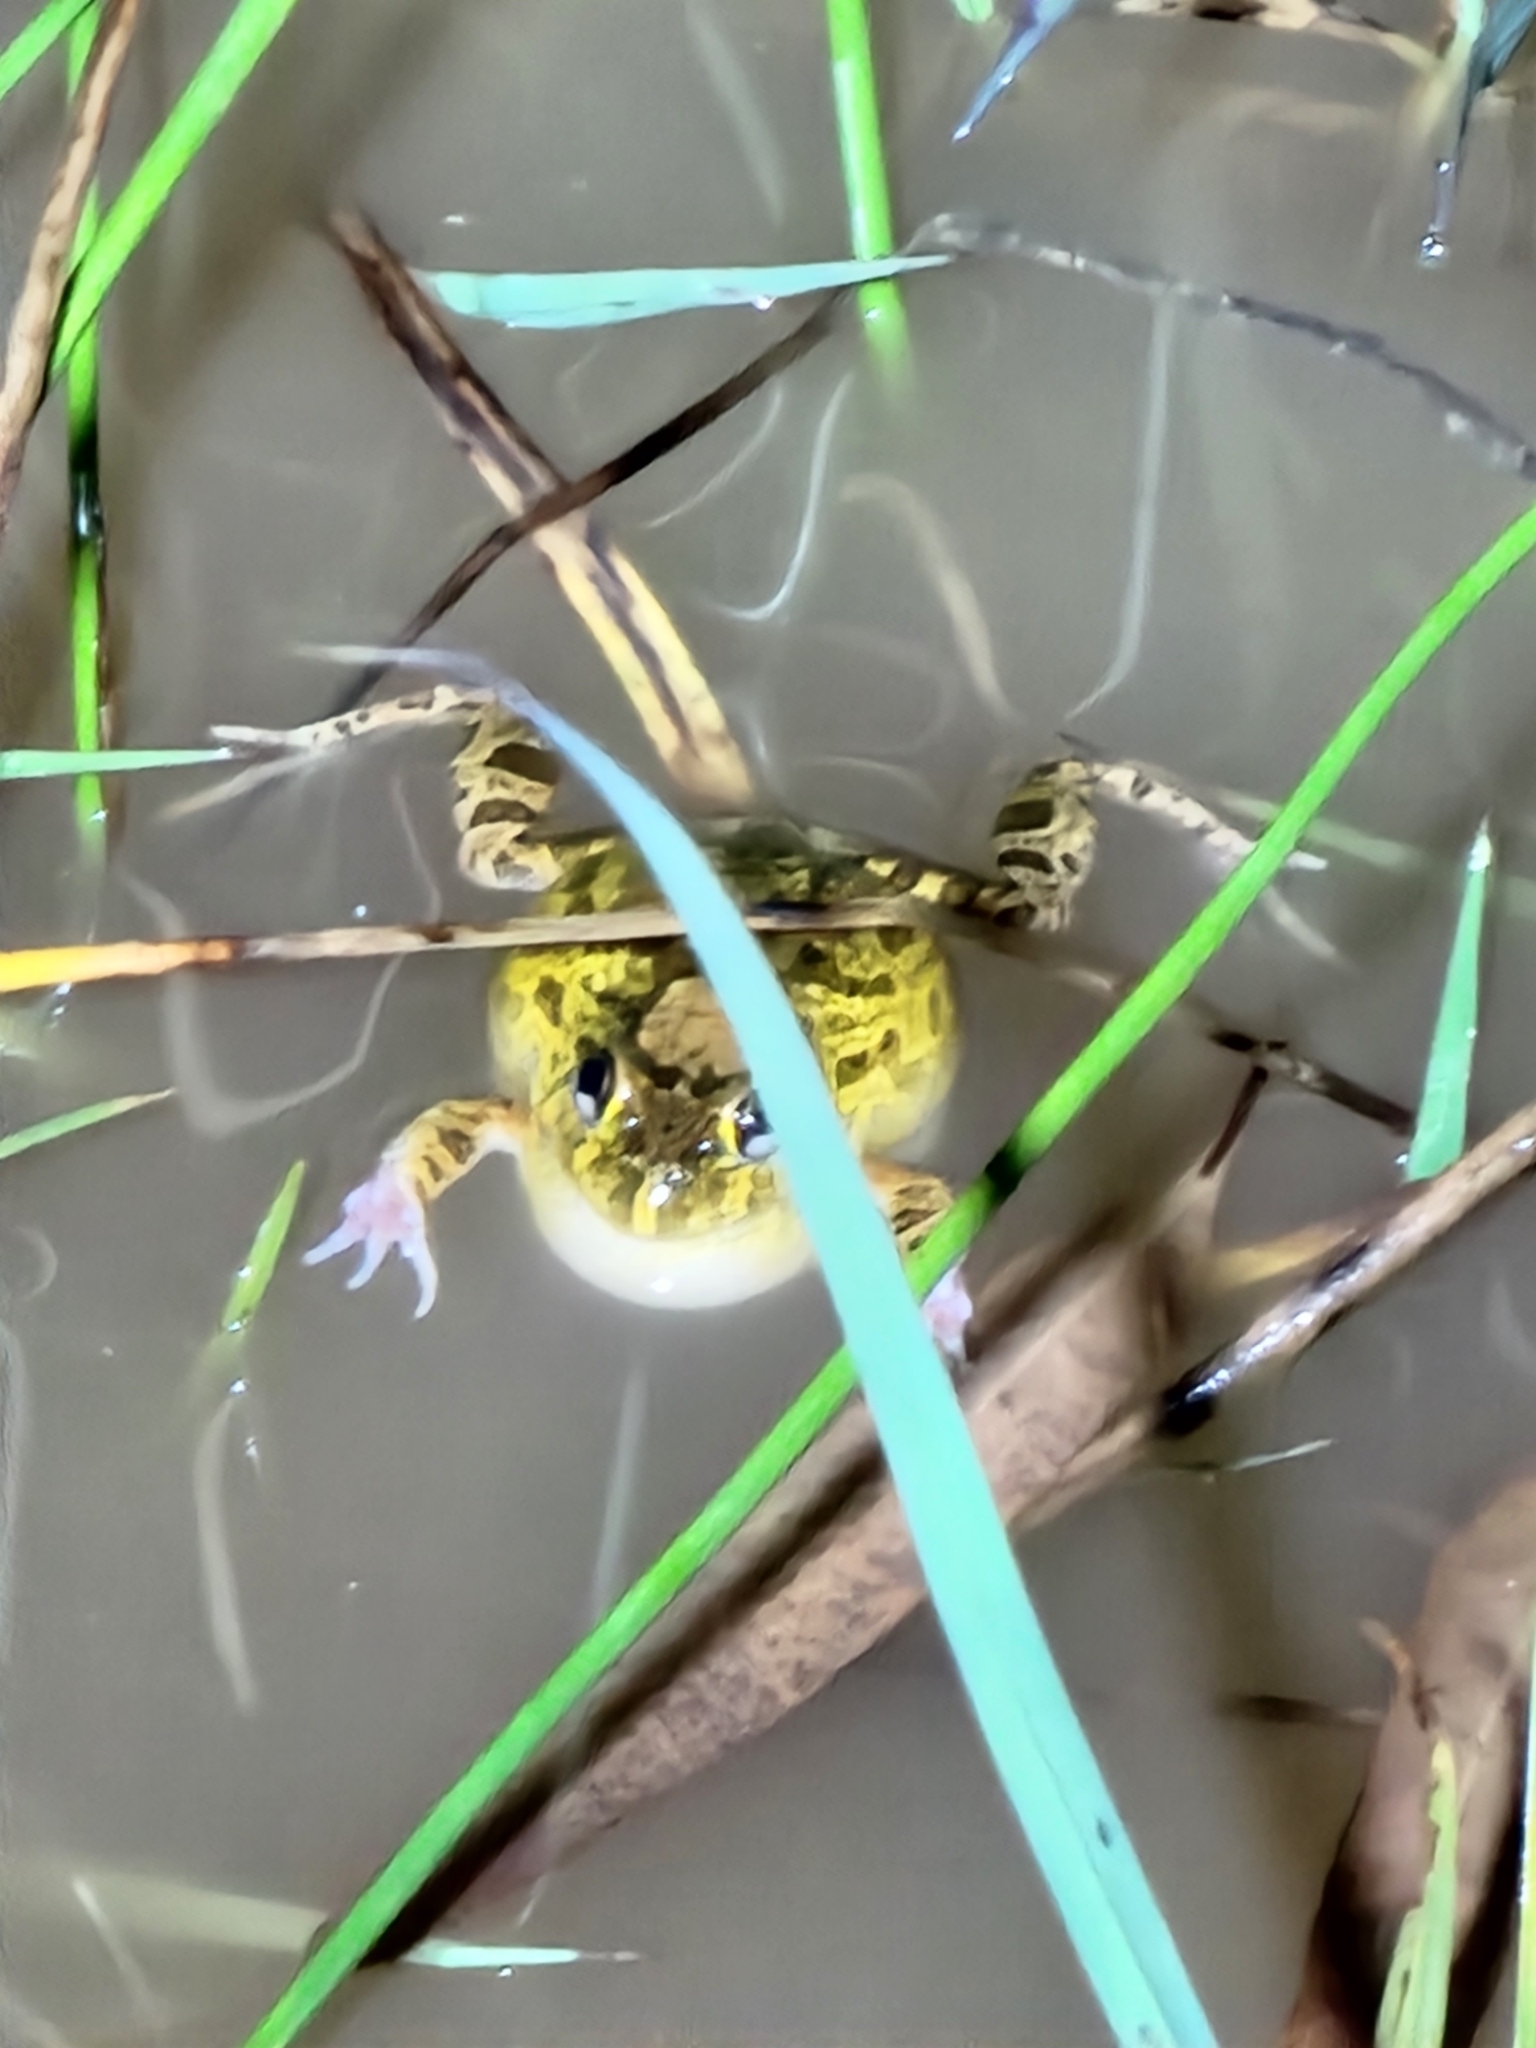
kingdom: Animalia
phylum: Chordata
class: Amphibia
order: Anura
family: Limnodynastidae
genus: Platyplectrum
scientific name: Platyplectrum ornatum
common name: Ornate burrowing frog
